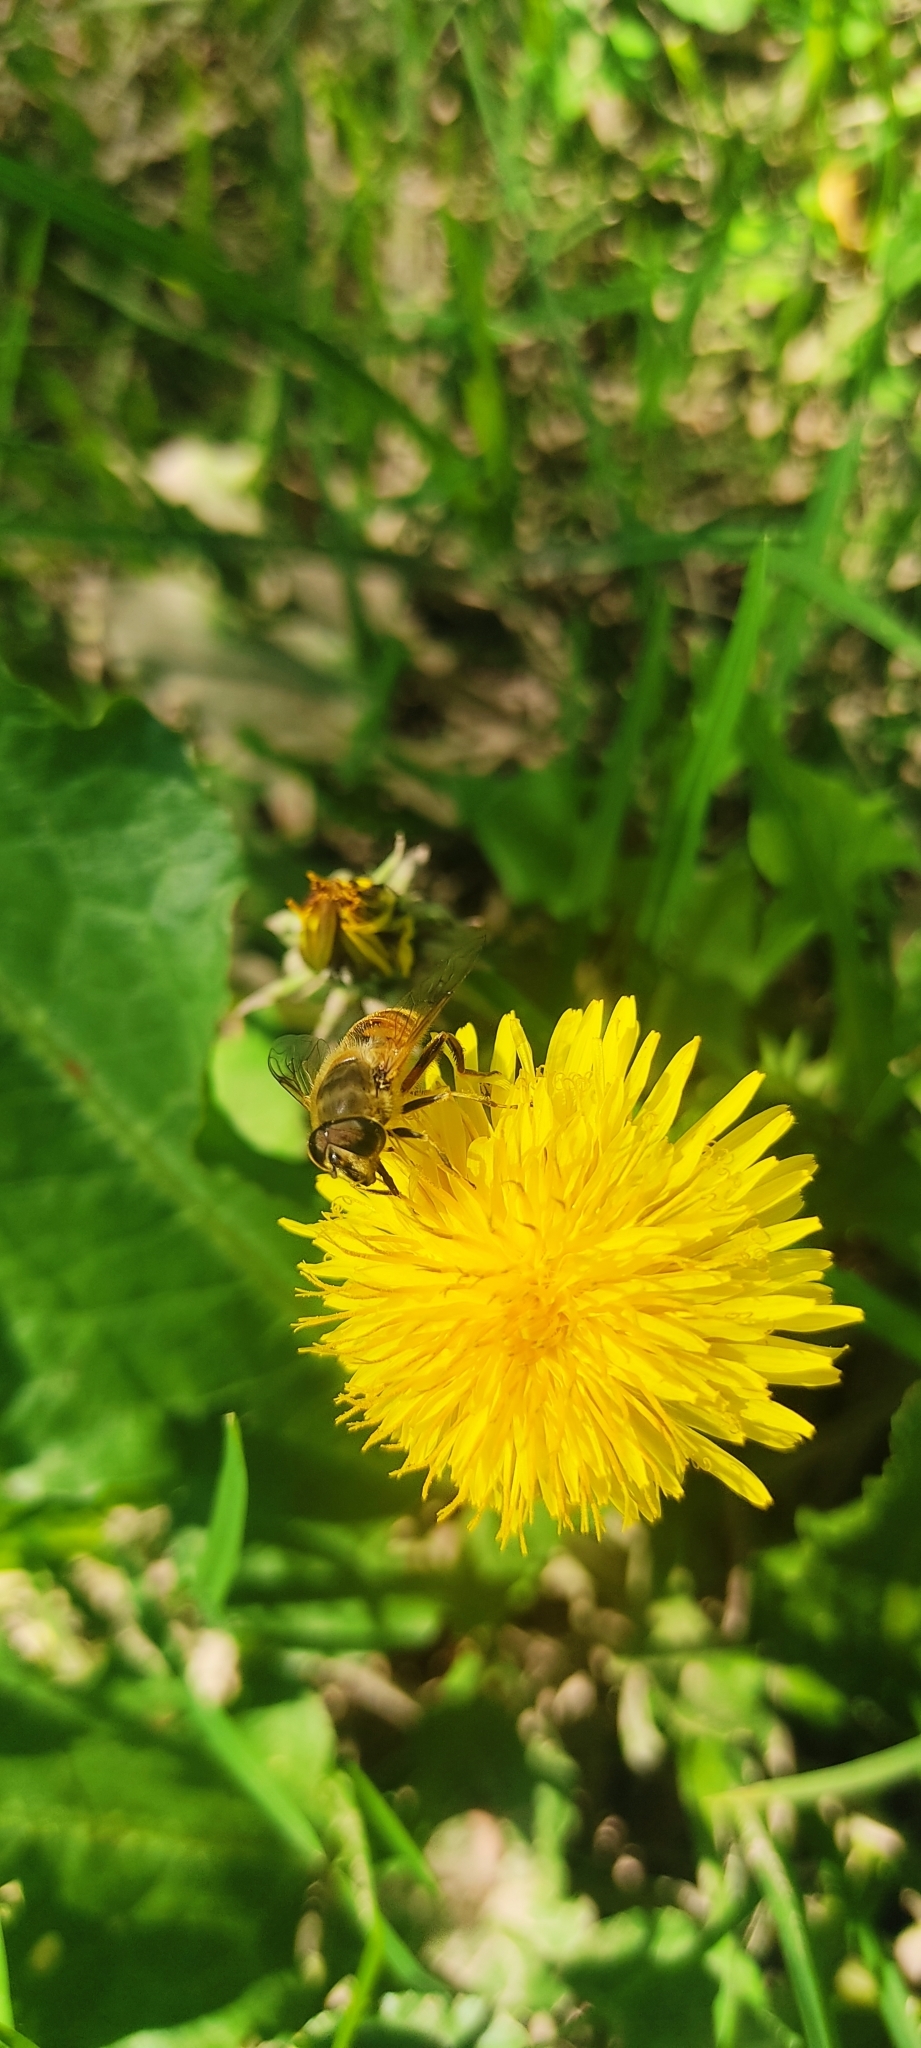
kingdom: Animalia
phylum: Arthropoda
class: Insecta
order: Diptera
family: Syrphidae
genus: Eristalis
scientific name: Eristalis tenax
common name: Drone fly
